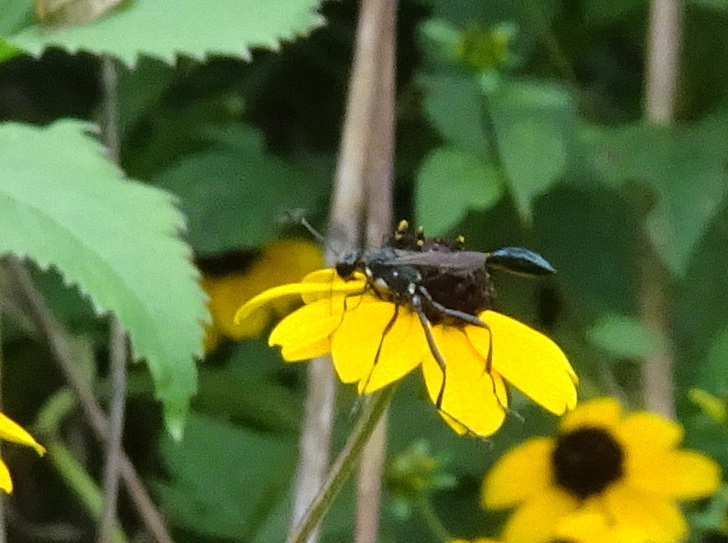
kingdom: Animalia
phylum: Arthropoda
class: Insecta
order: Hymenoptera
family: Sphecidae
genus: Eremnophila
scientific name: Eremnophila aureonotata
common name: Gold-marked thread-waisted wasp
